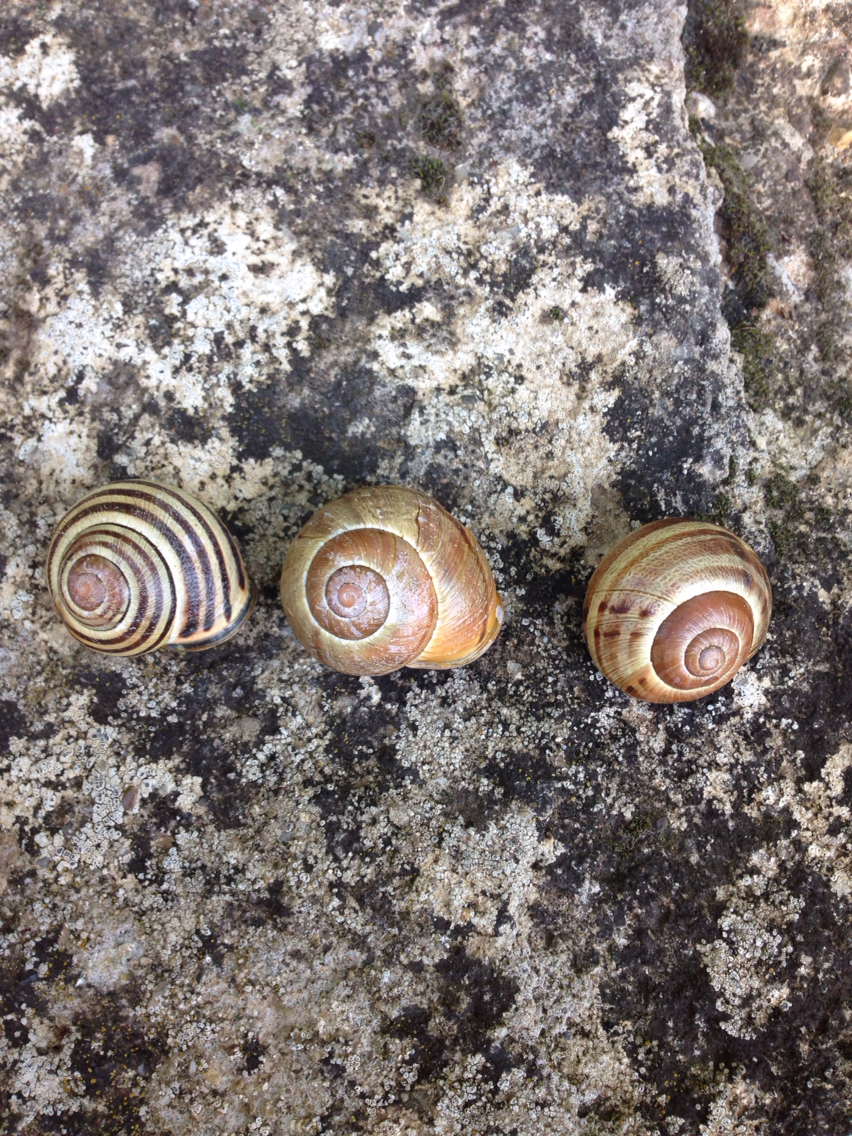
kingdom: Animalia
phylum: Mollusca
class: Gastropoda
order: Stylommatophora
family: Helicidae
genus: Cepaea
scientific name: Cepaea nemoralis
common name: Grovesnail
